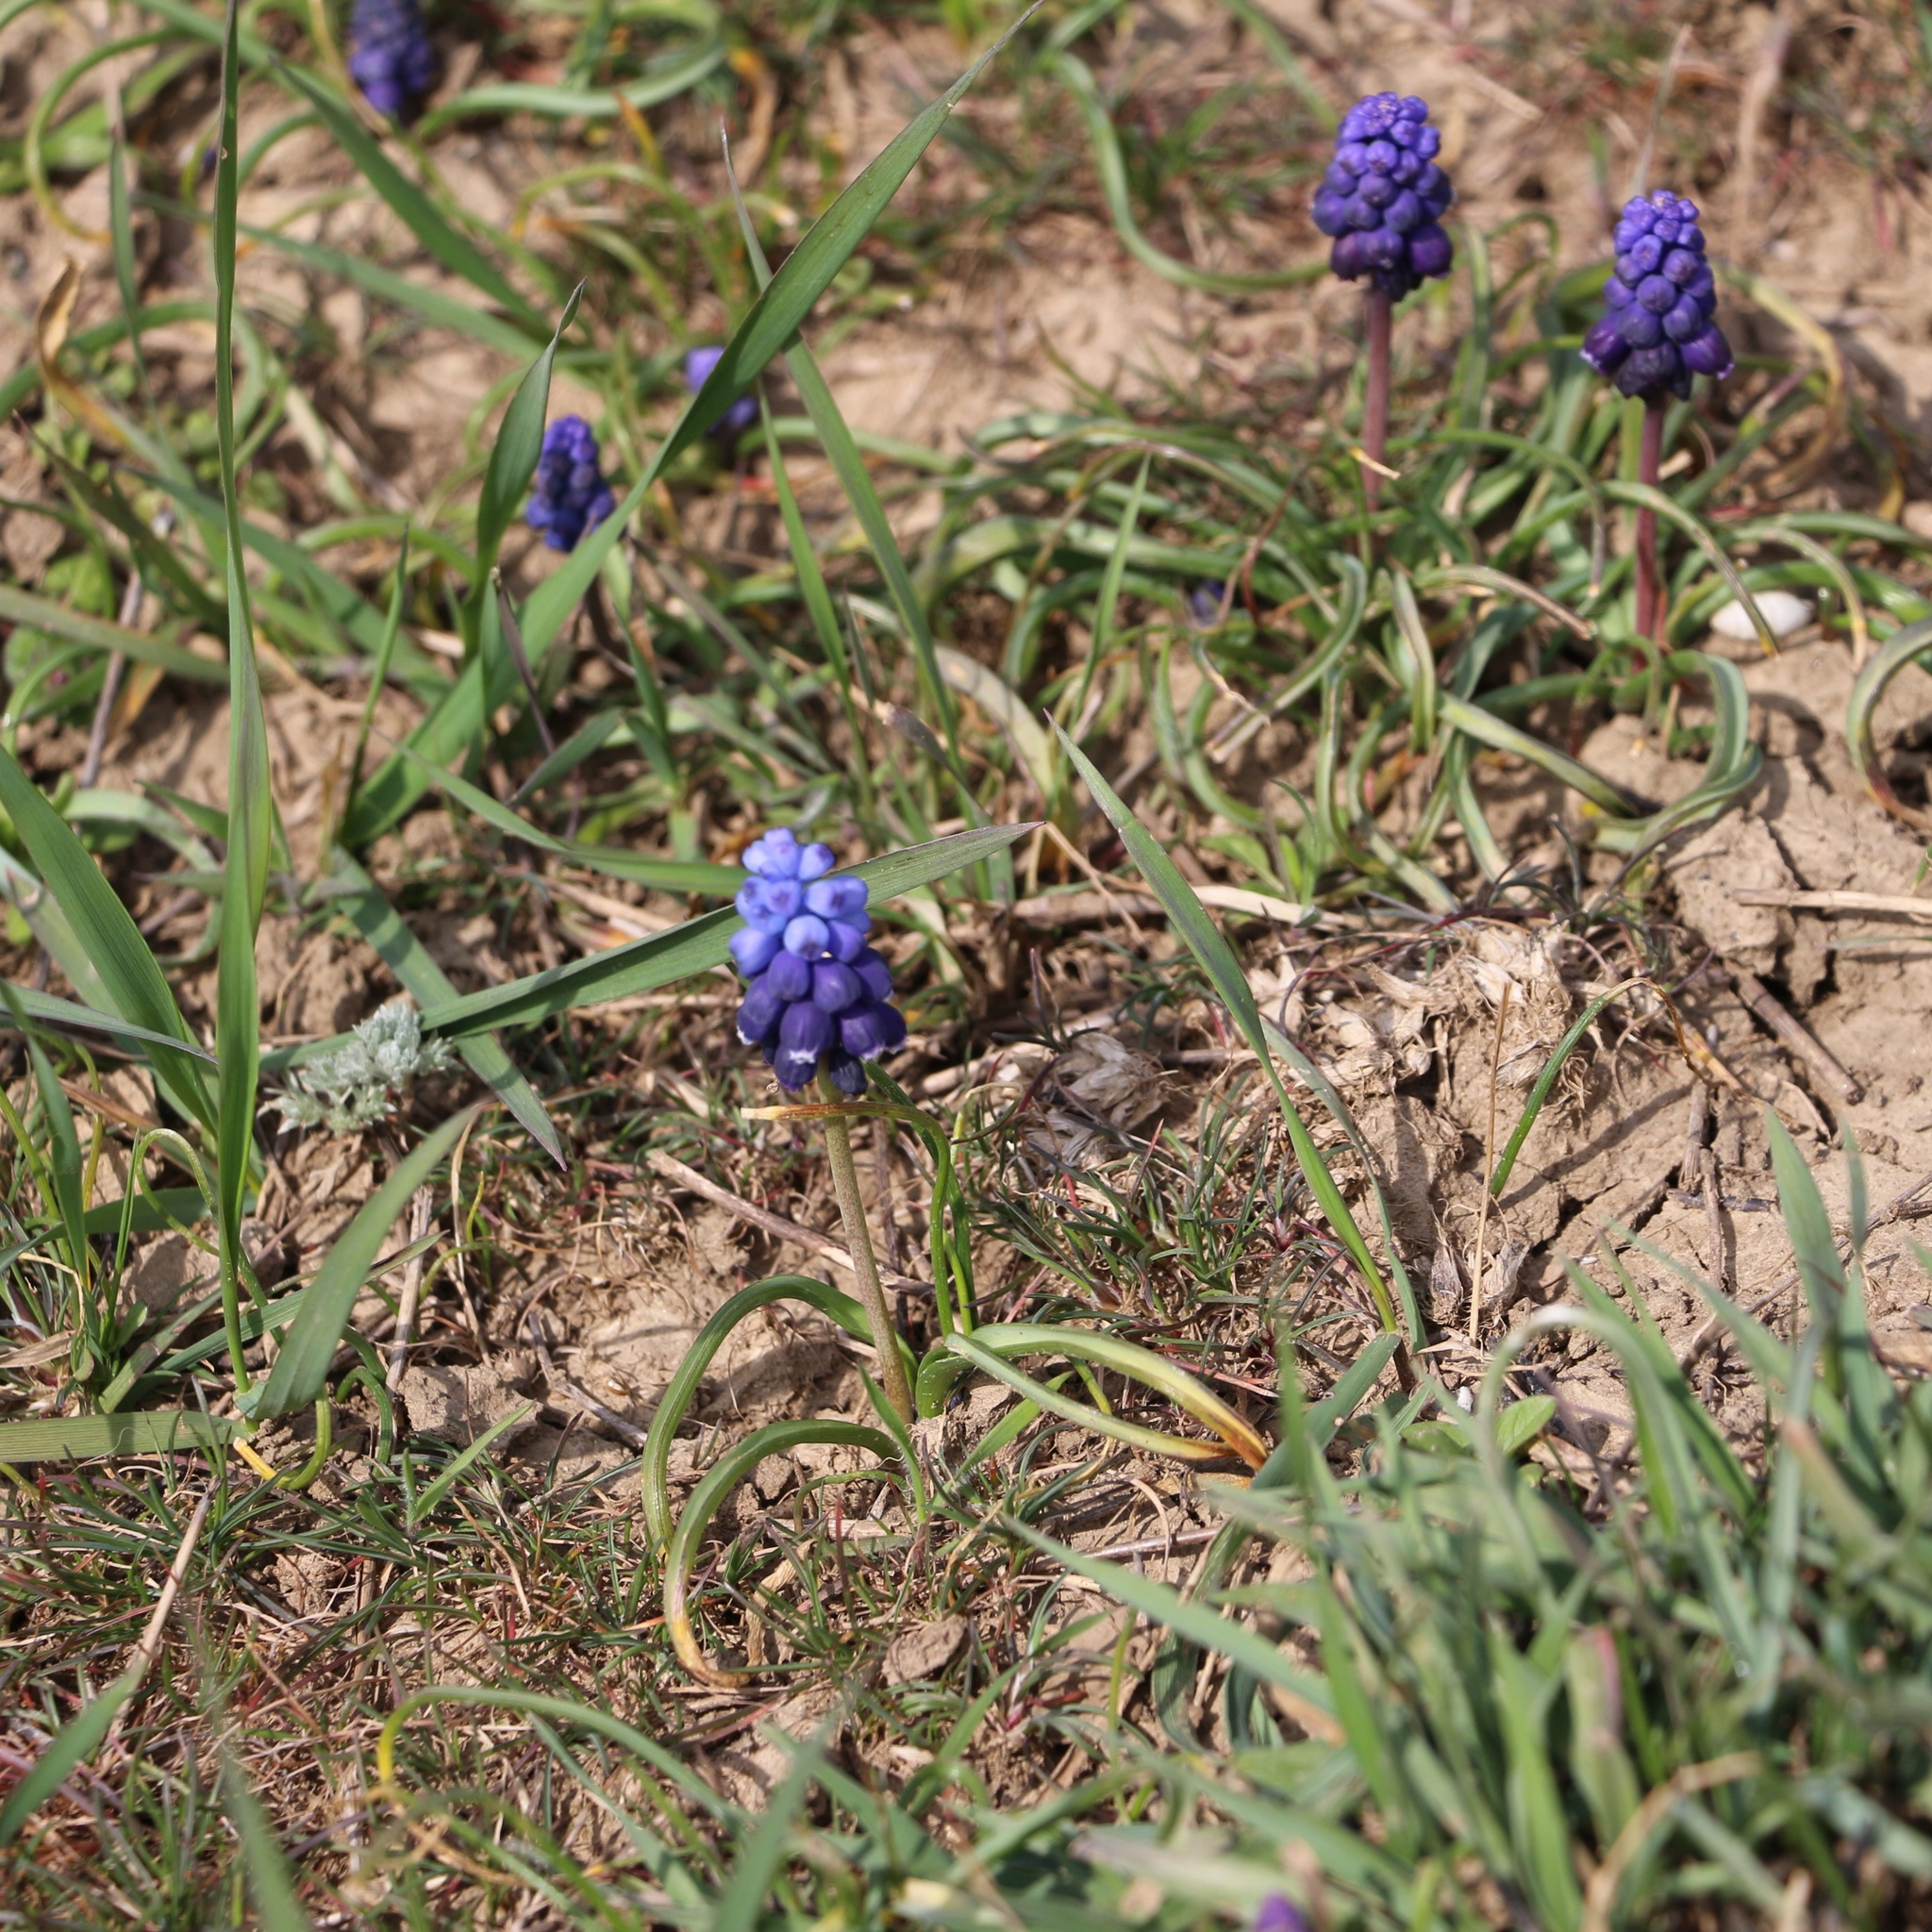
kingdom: Plantae
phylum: Tracheophyta
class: Liliopsida
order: Asparagales
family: Asparagaceae
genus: Muscari
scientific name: Muscari neglectum
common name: Grape-hyacinth
